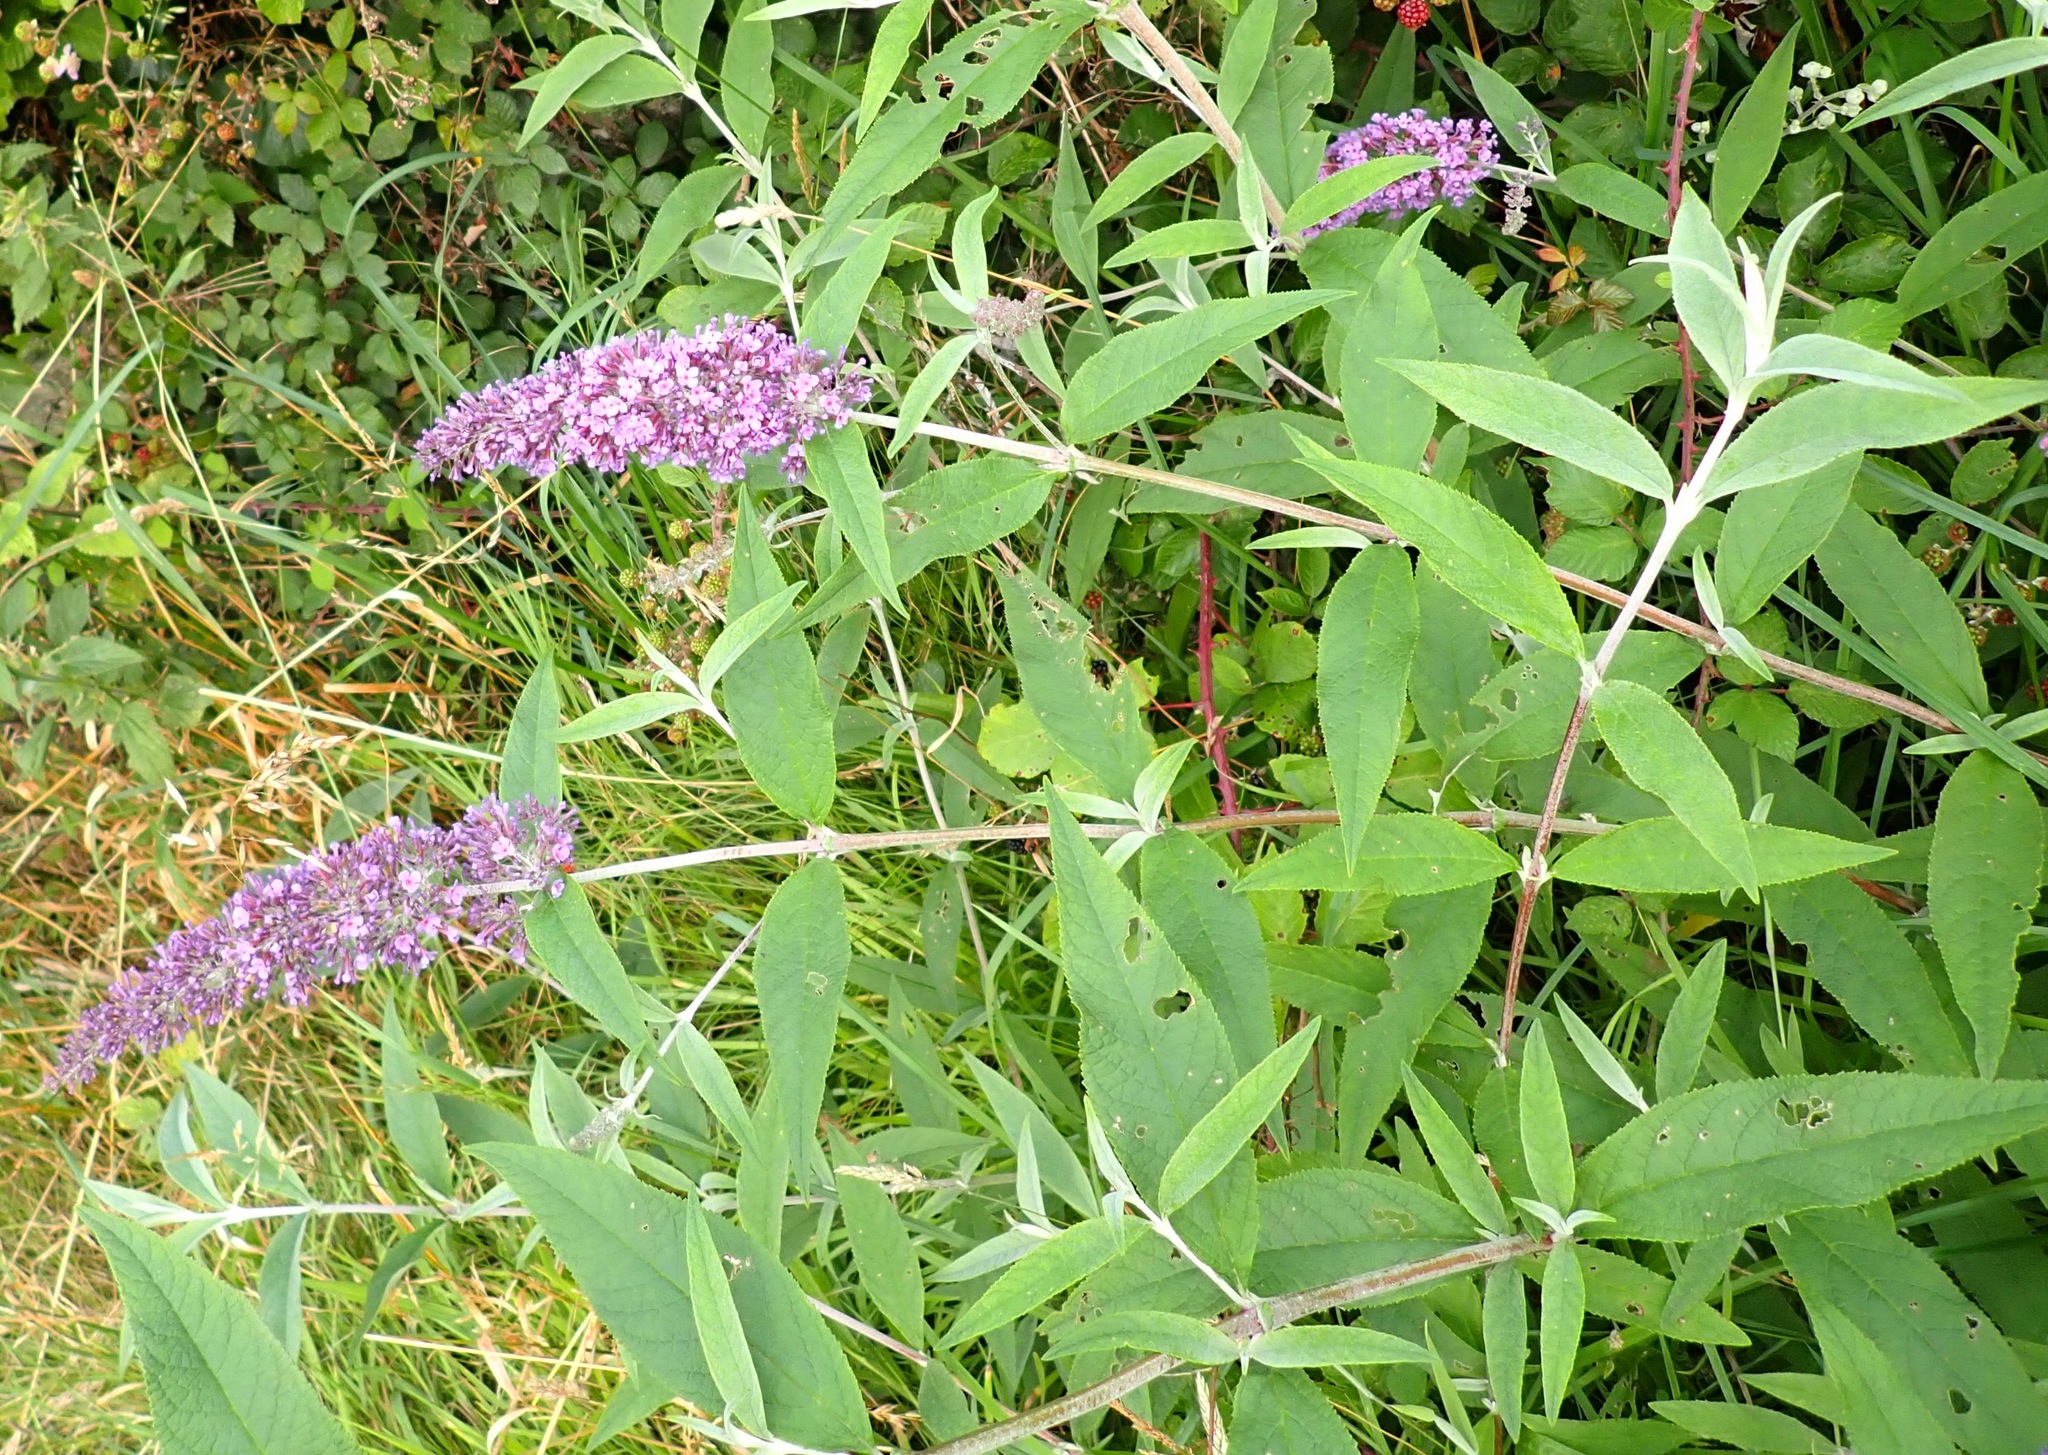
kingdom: Plantae
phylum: Tracheophyta
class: Magnoliopsida
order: Lamiales
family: Scrophulariaceae
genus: Buddleja
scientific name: Buddleja davidii
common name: Butterfly-bush
